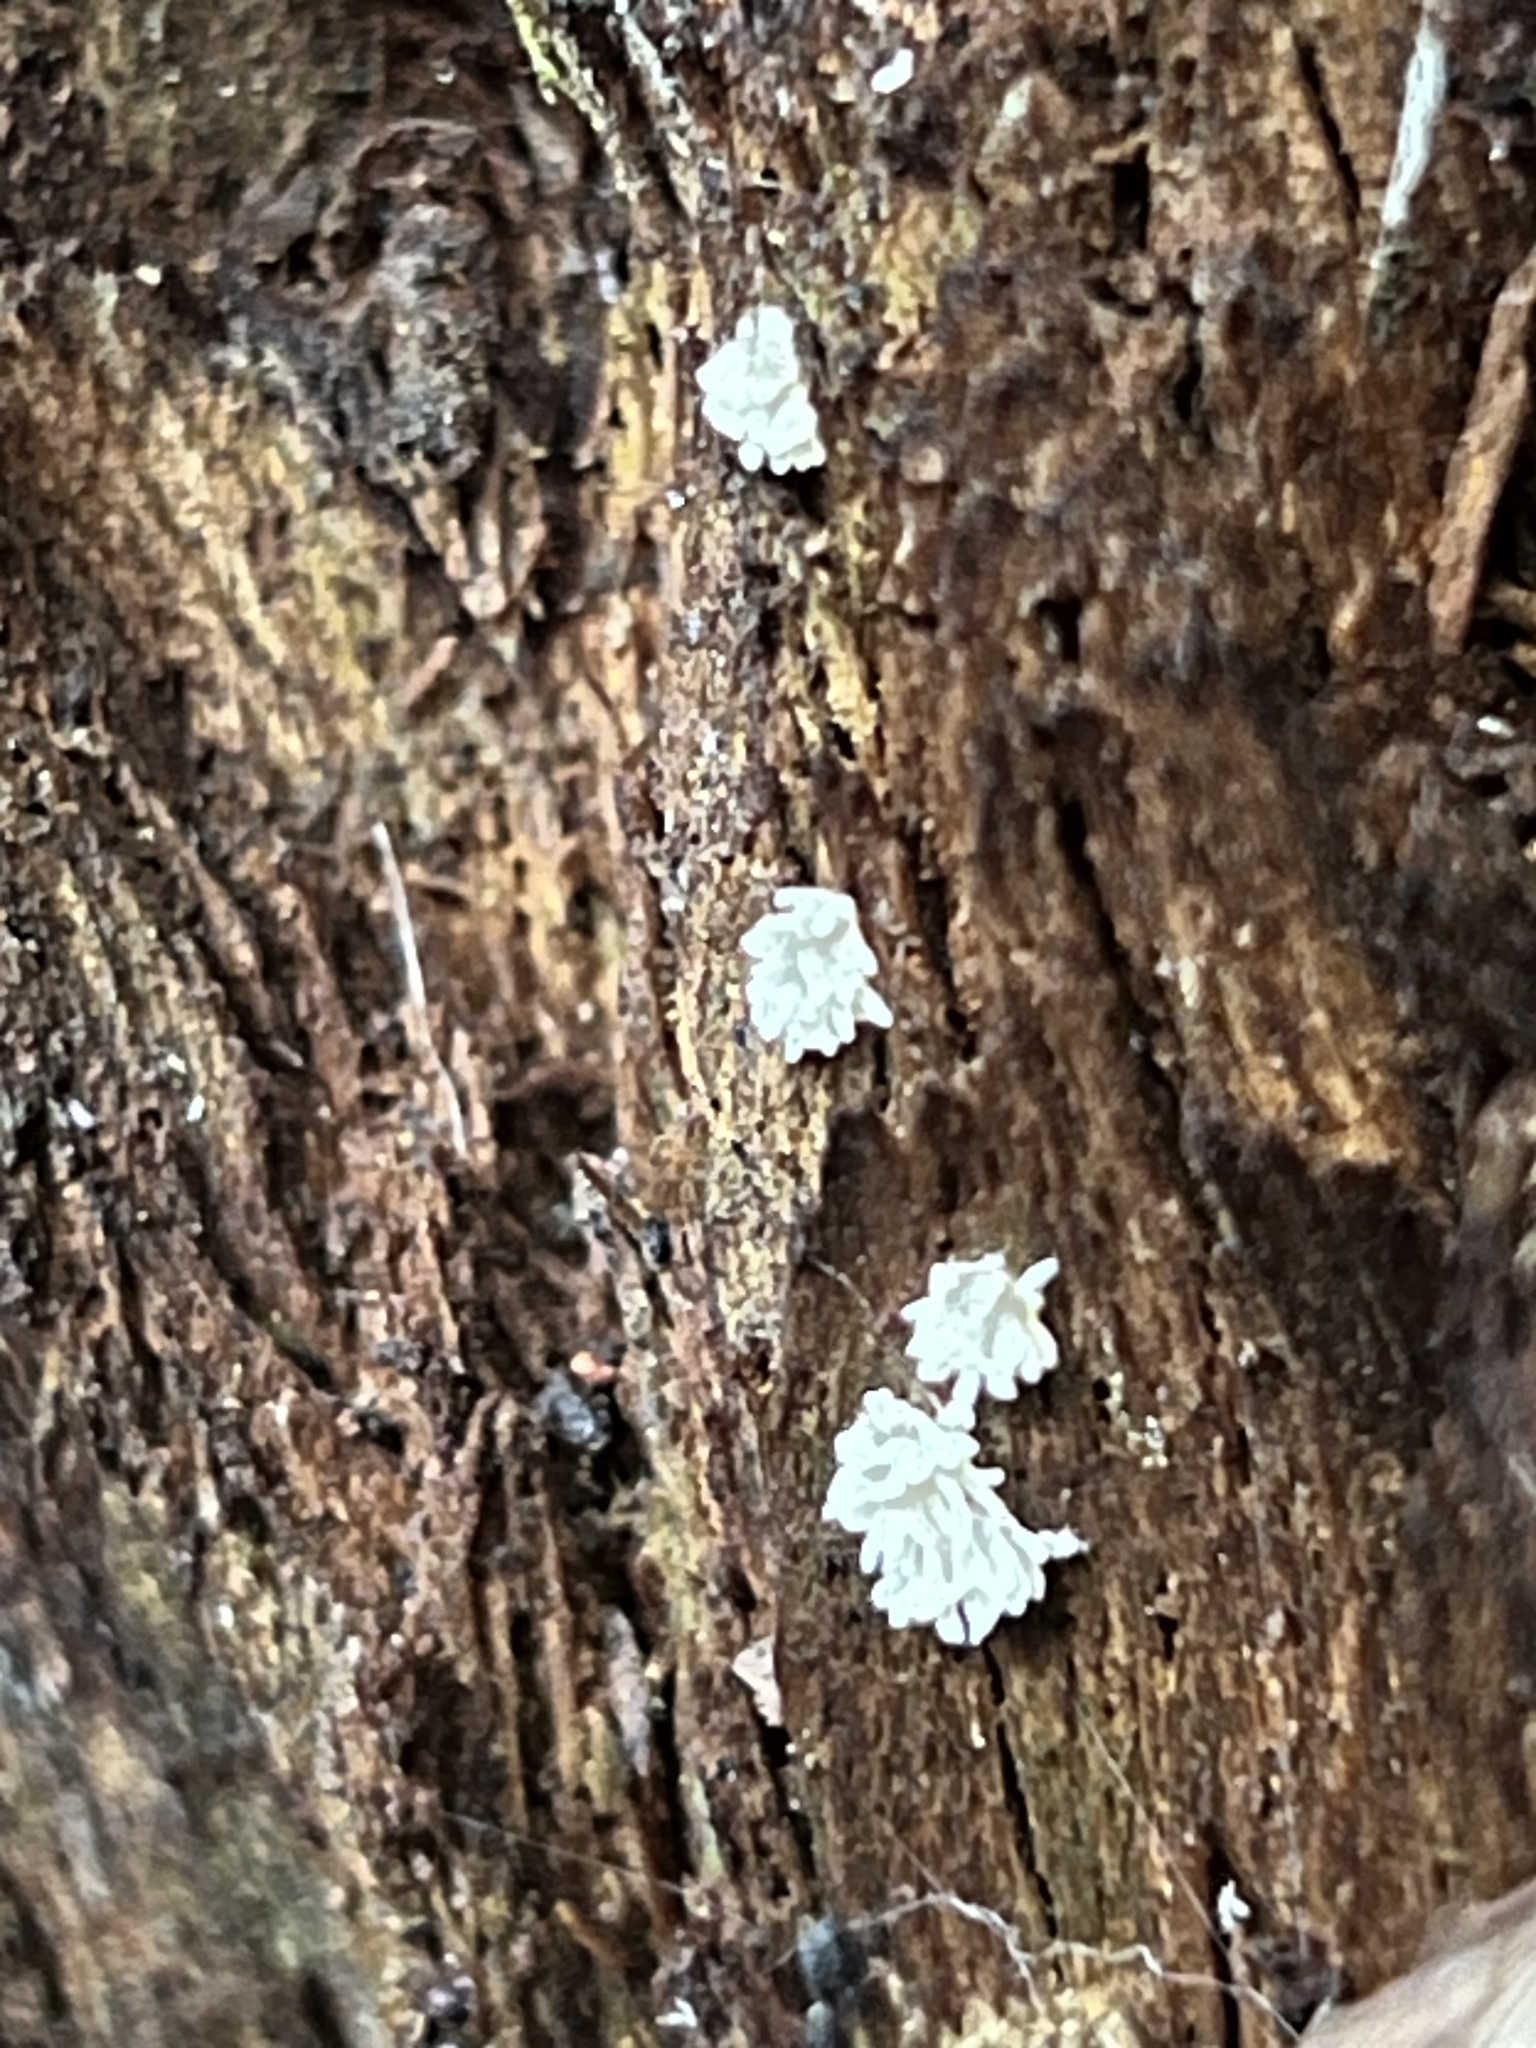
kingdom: Protozoa
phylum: Mycetozoa
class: Protosteliomycetes
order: Ceratiomyxales
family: Ceratiomyxaceae
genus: Ceratiomyxa
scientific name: Ceratiomyxa fruticulosa
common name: Honeycomb coral slime mold
